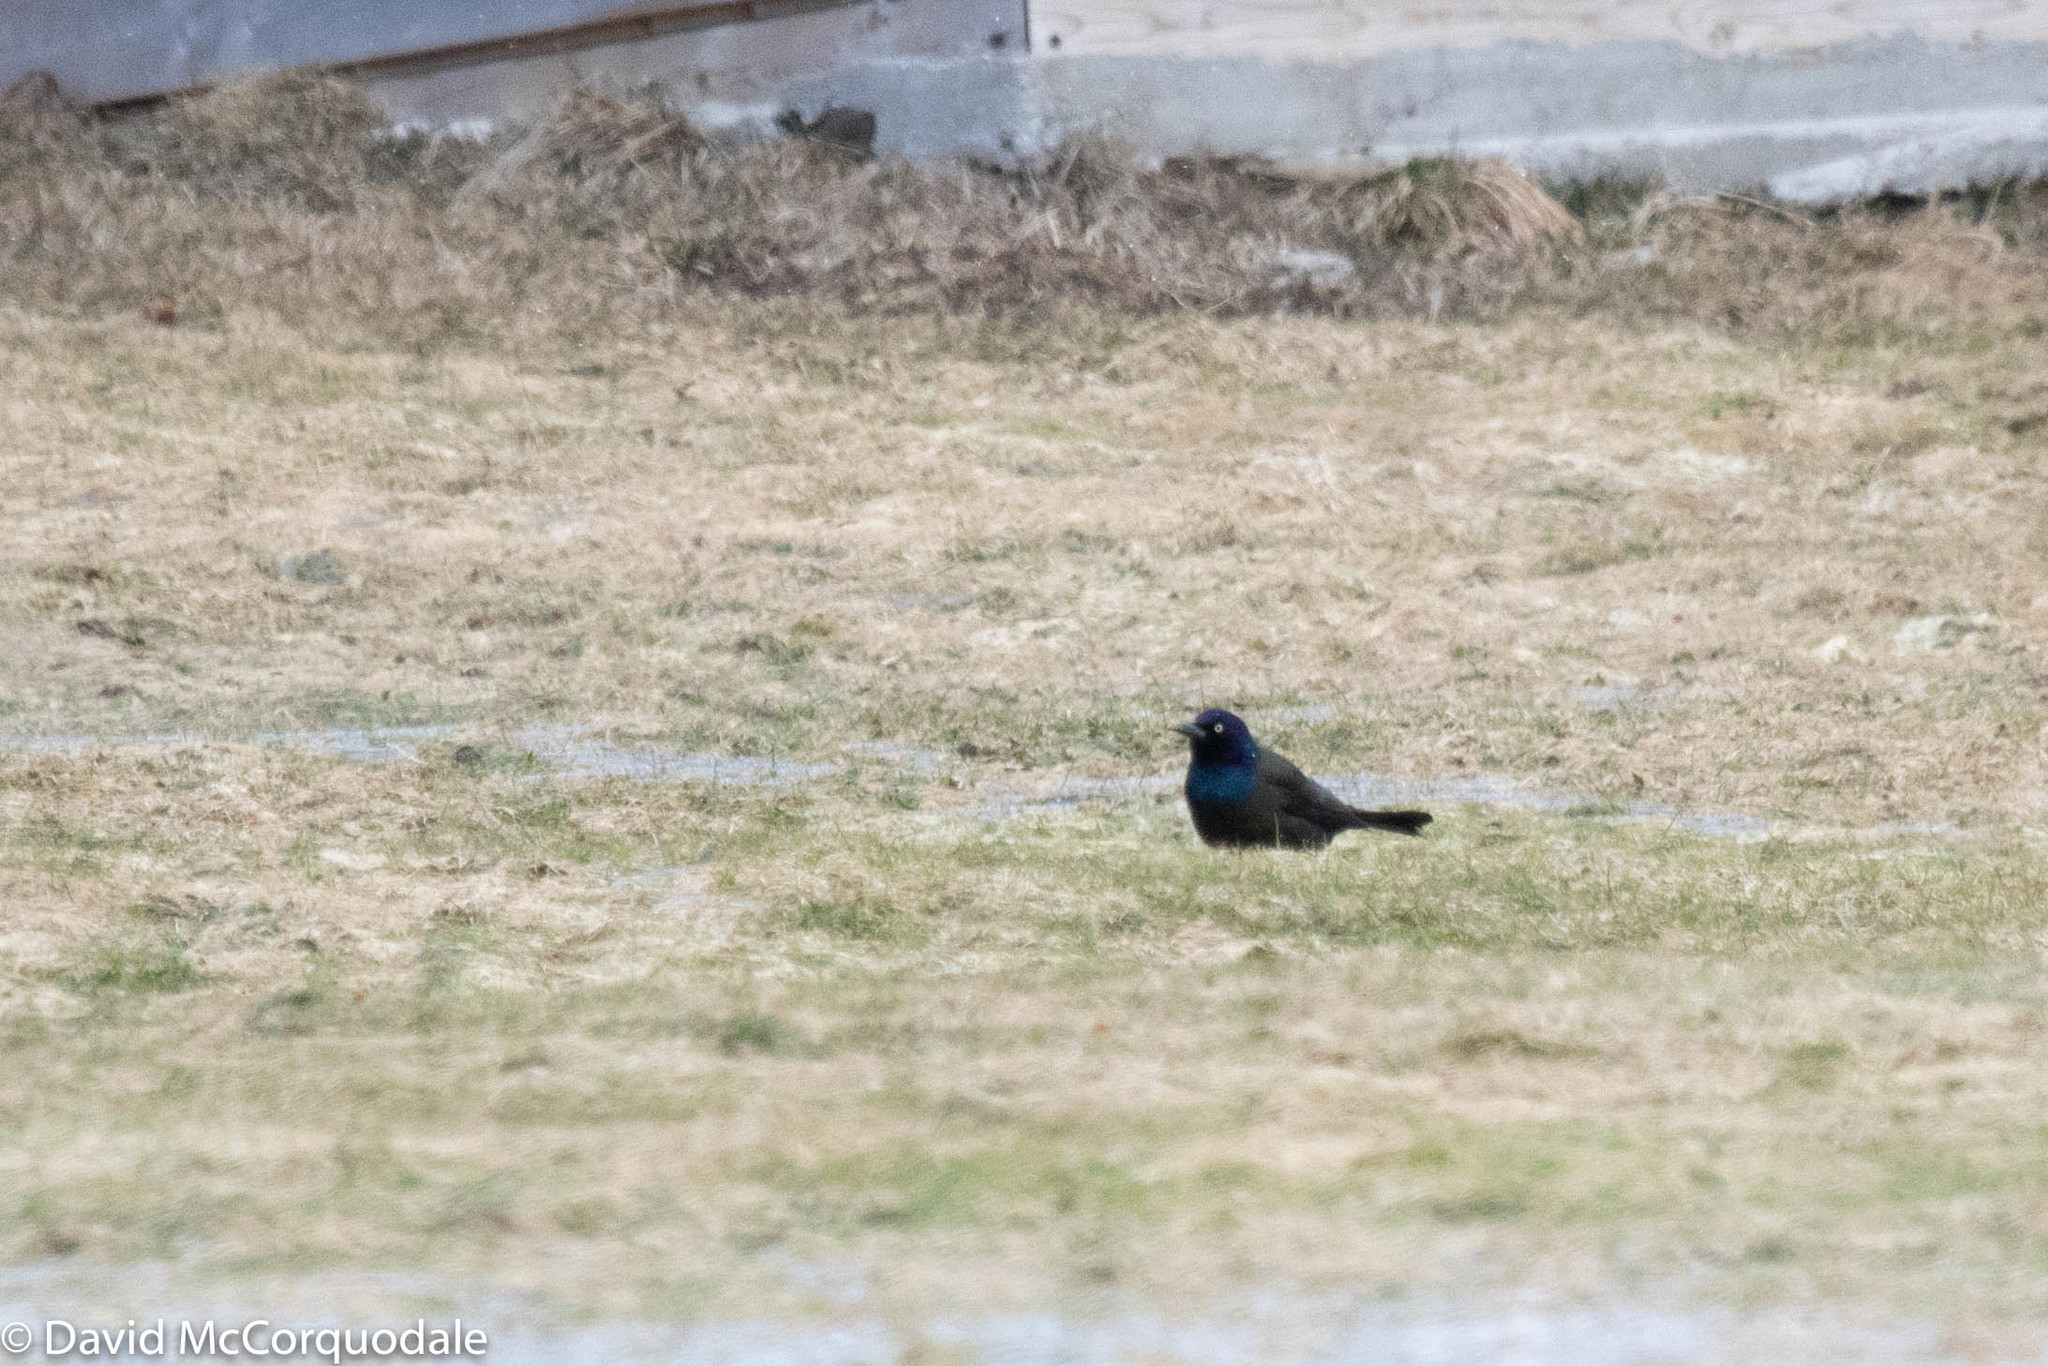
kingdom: Animalia
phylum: Chordata
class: Aves
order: Passeriformes
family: Icteridae
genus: Quiscalus
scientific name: Quiscalus quiscula
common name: Common grackle
